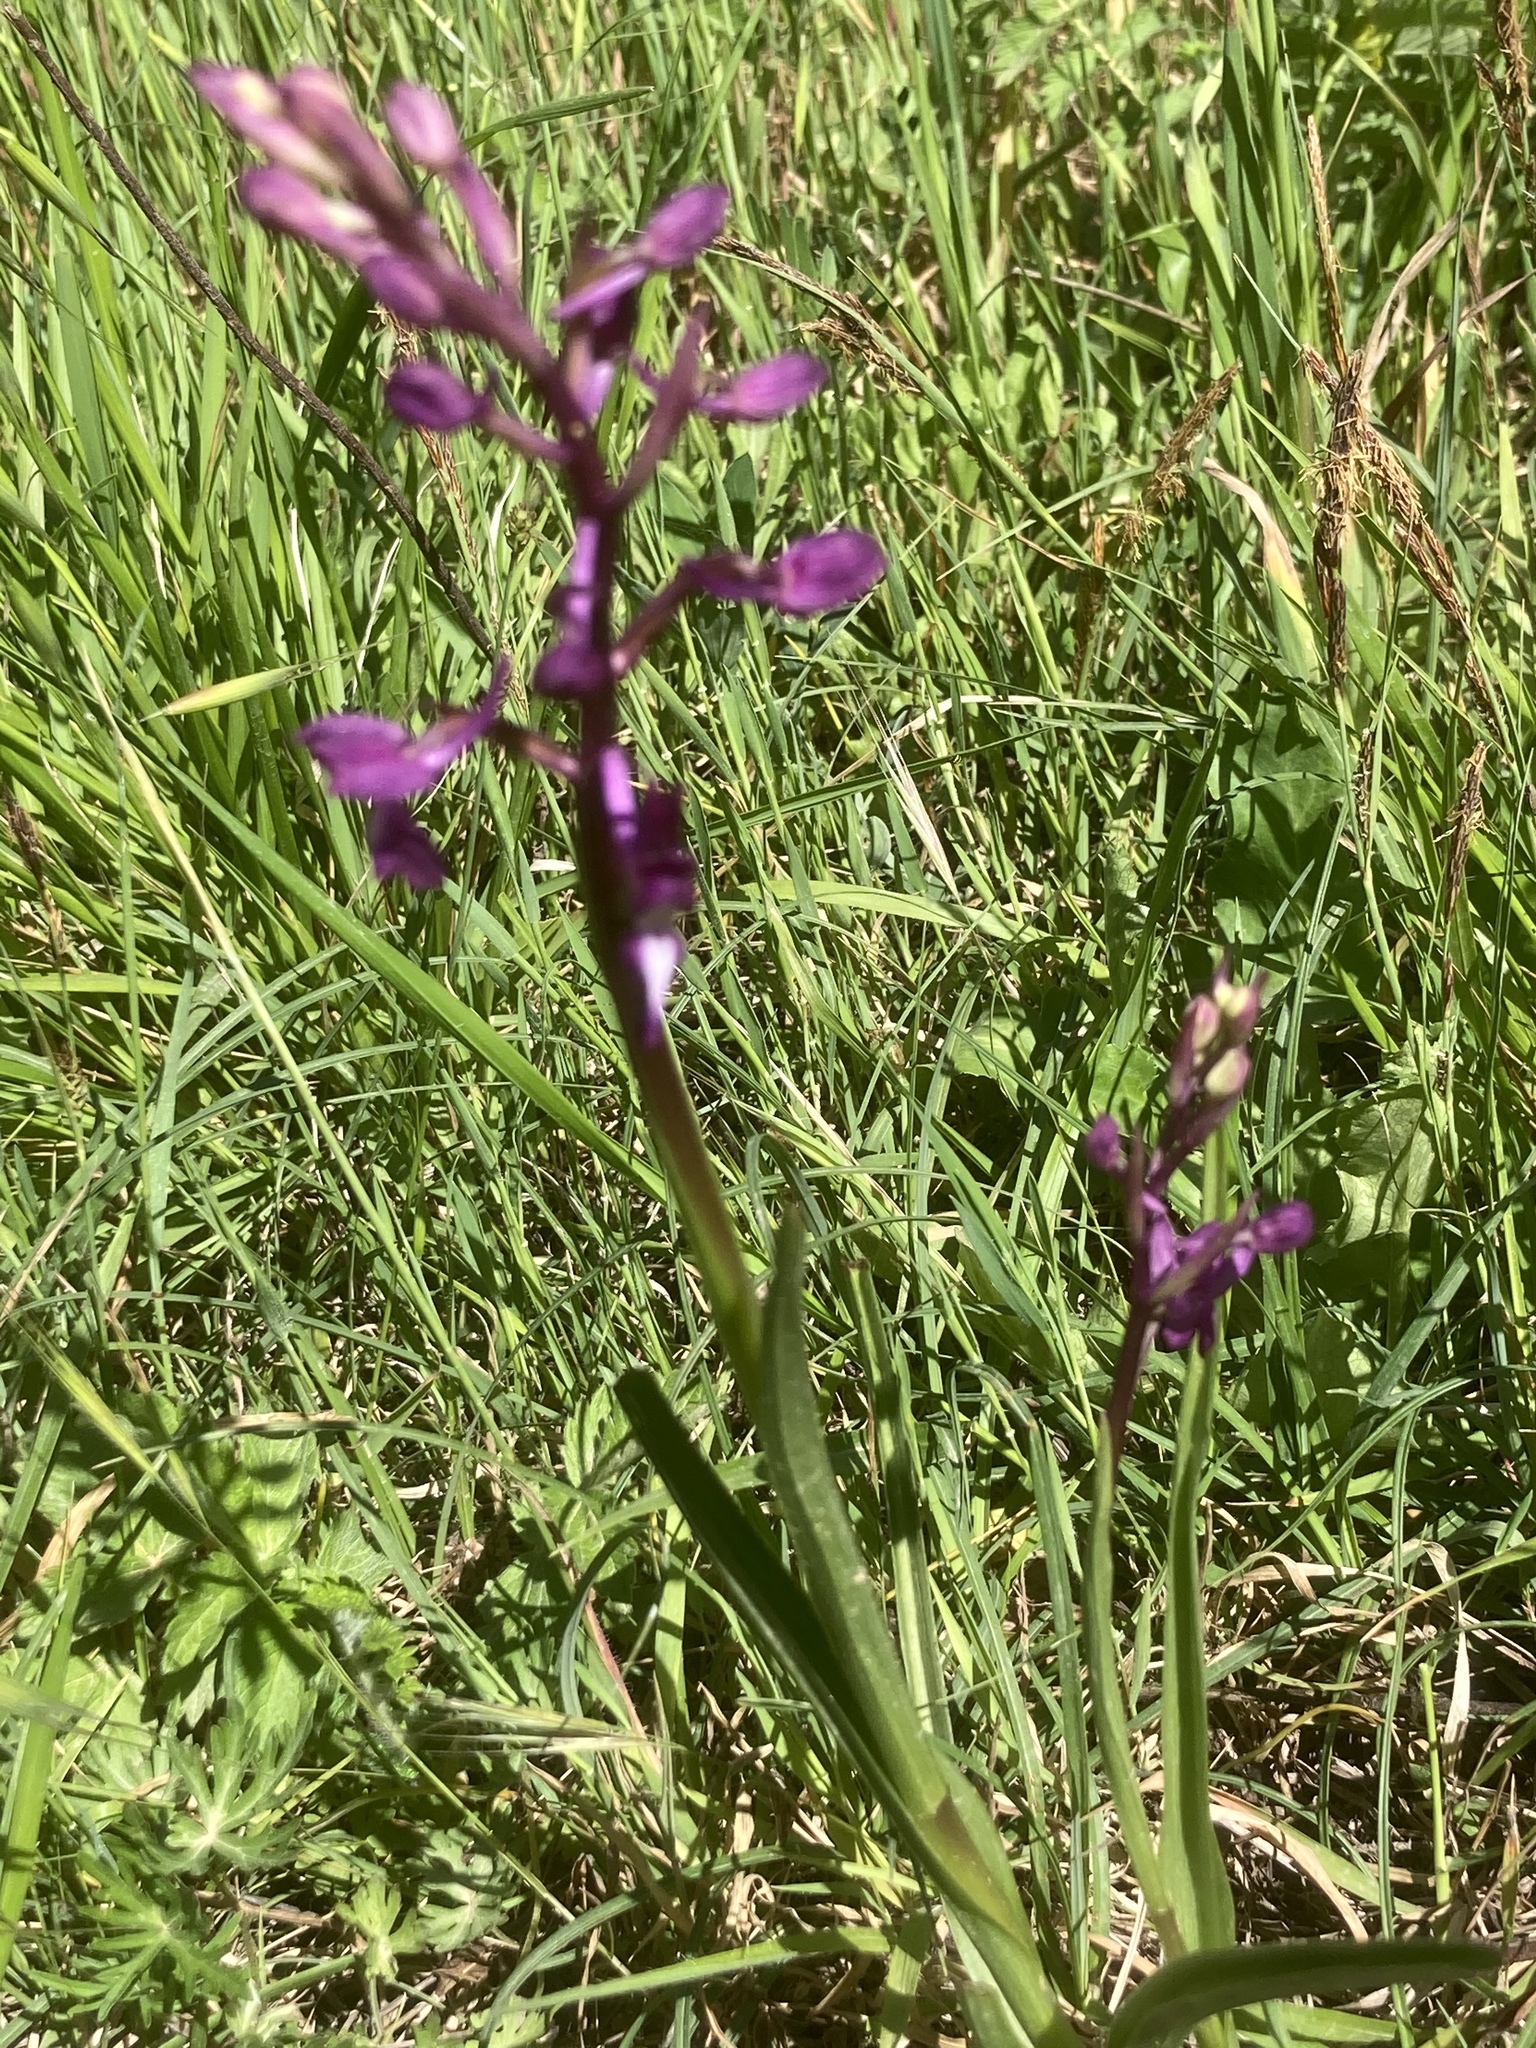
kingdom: Plantae
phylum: Tracheophyta
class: Liliopsida
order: Asparagales
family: Orchidaceae
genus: Anacamptis
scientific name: Anacamptis laxiflora
